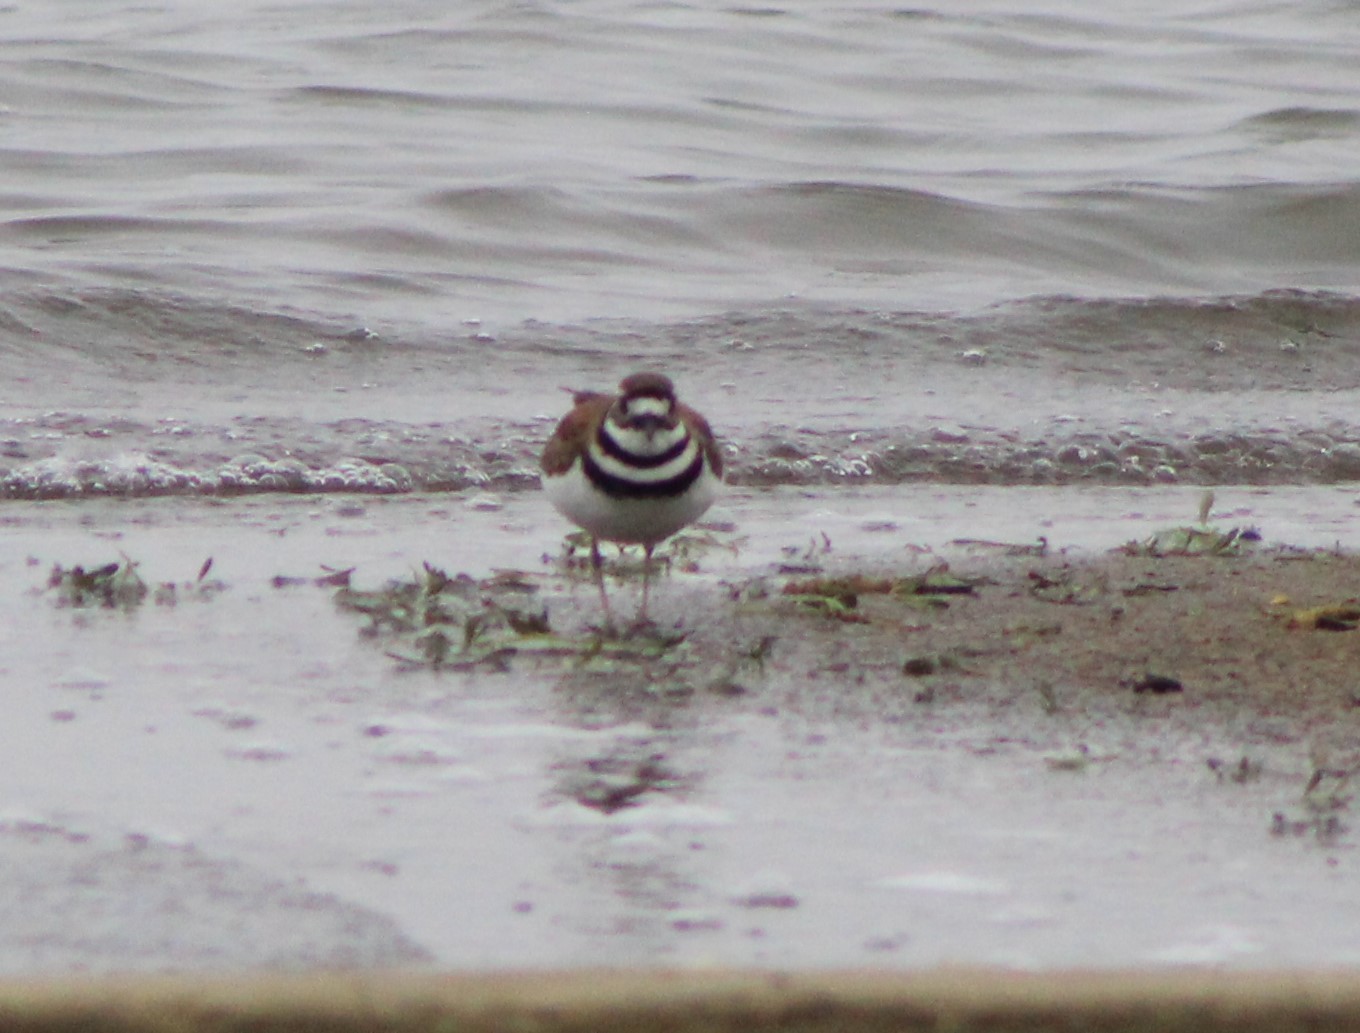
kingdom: Animalia
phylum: Chordata
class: Aves
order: Charadriiformes
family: Charadriidae
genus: Charadrius
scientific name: Charadrius vociferus
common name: Killdeer
